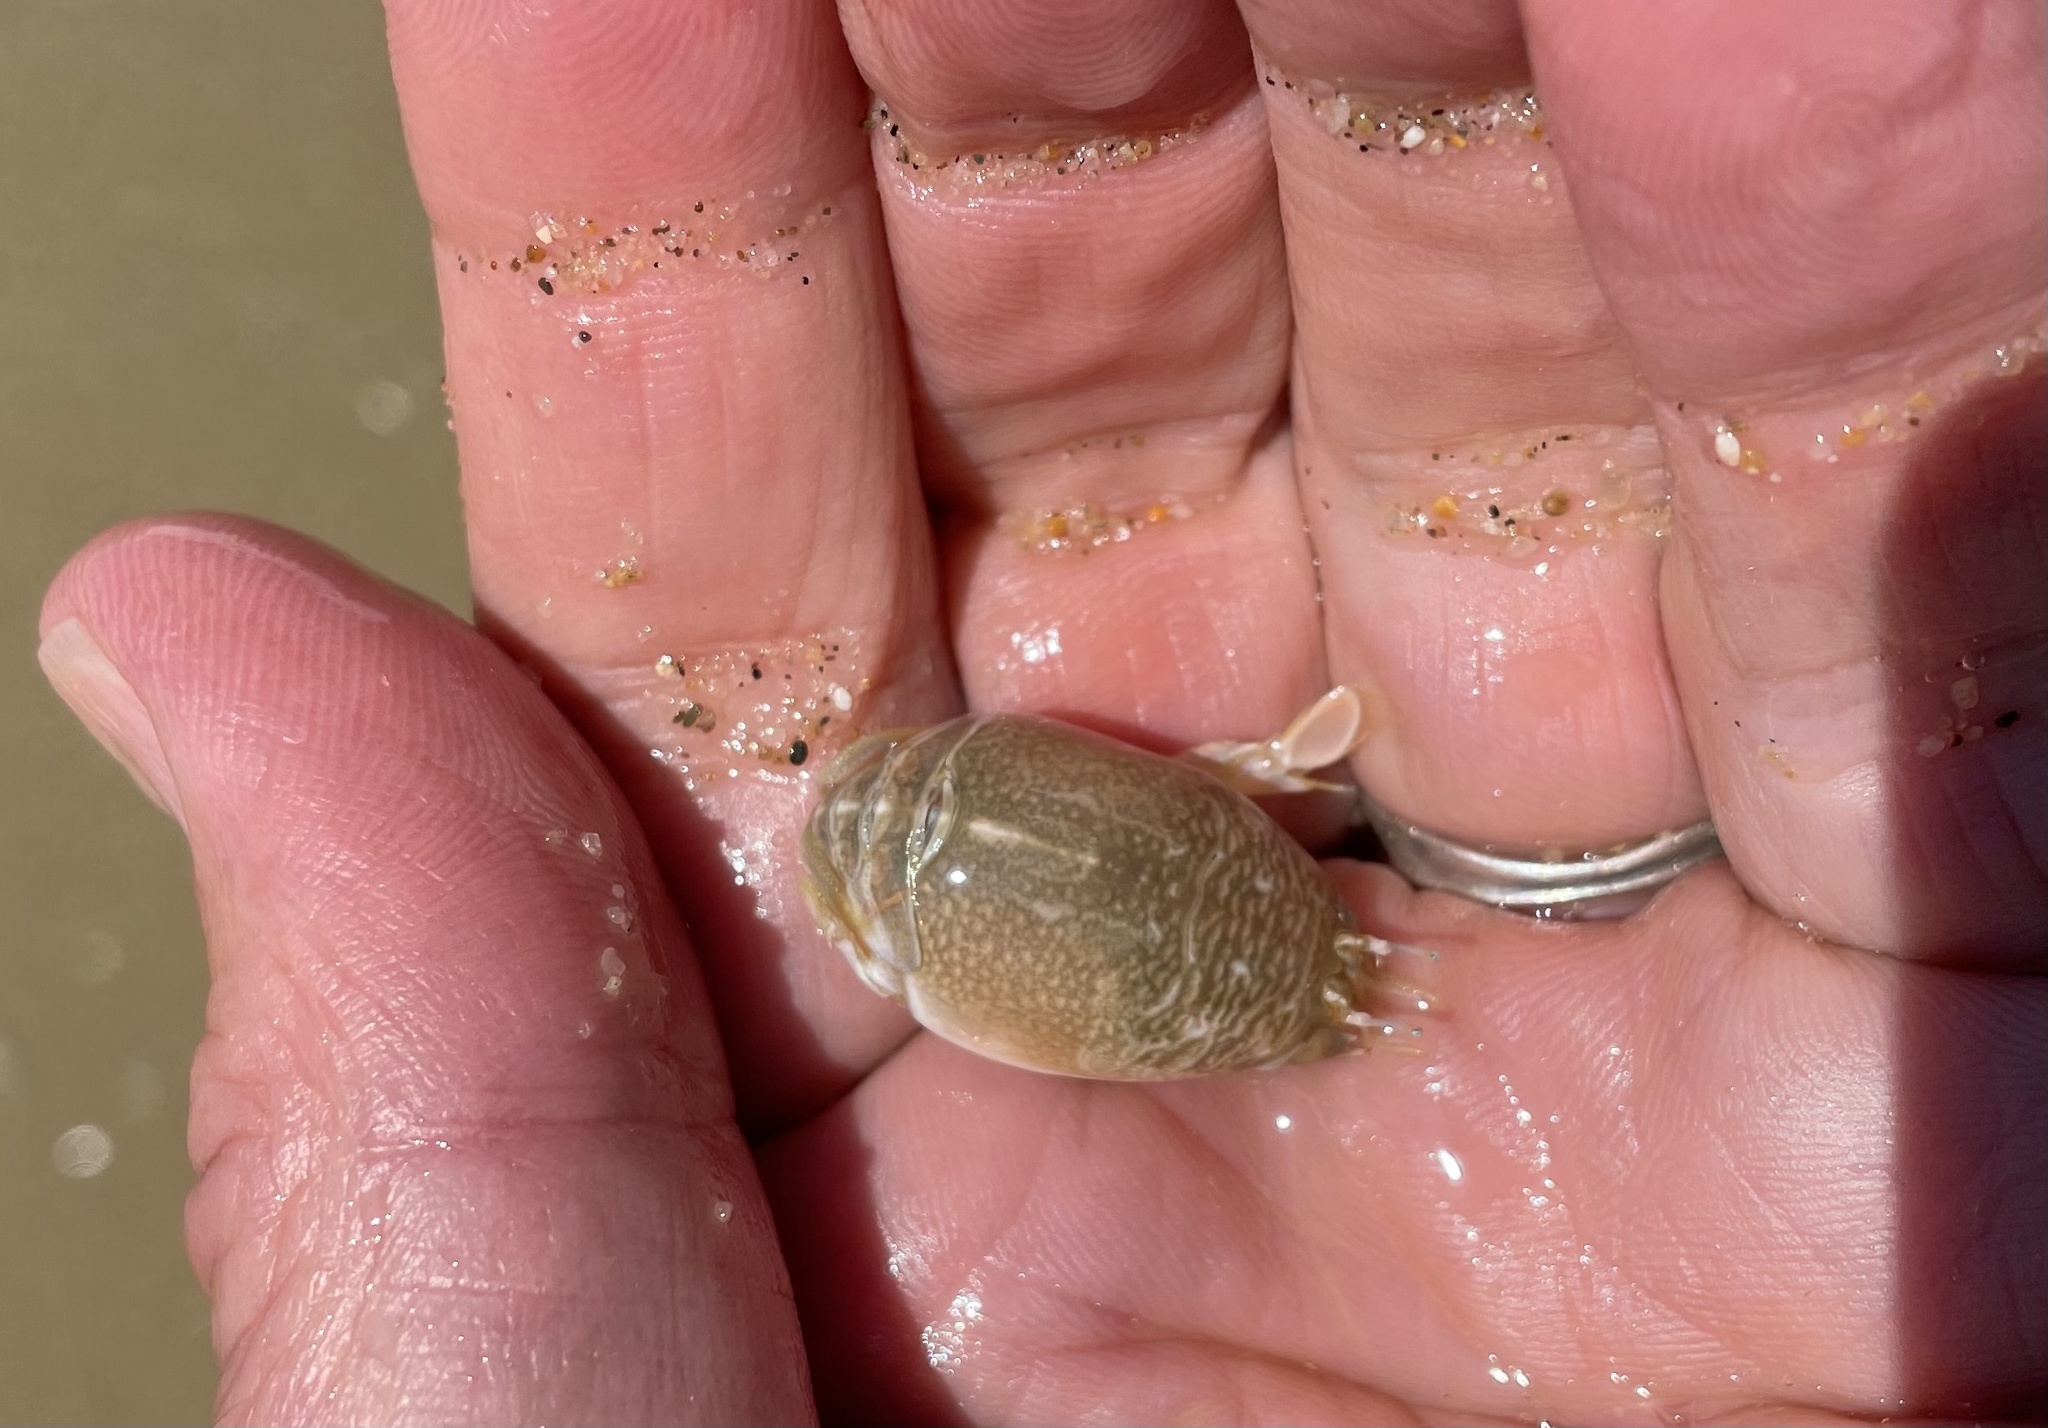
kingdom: Animalia
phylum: Arthropoda
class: Malacostraca
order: Decapoda
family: Hippidae
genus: Emerita
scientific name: Emerita analoga
